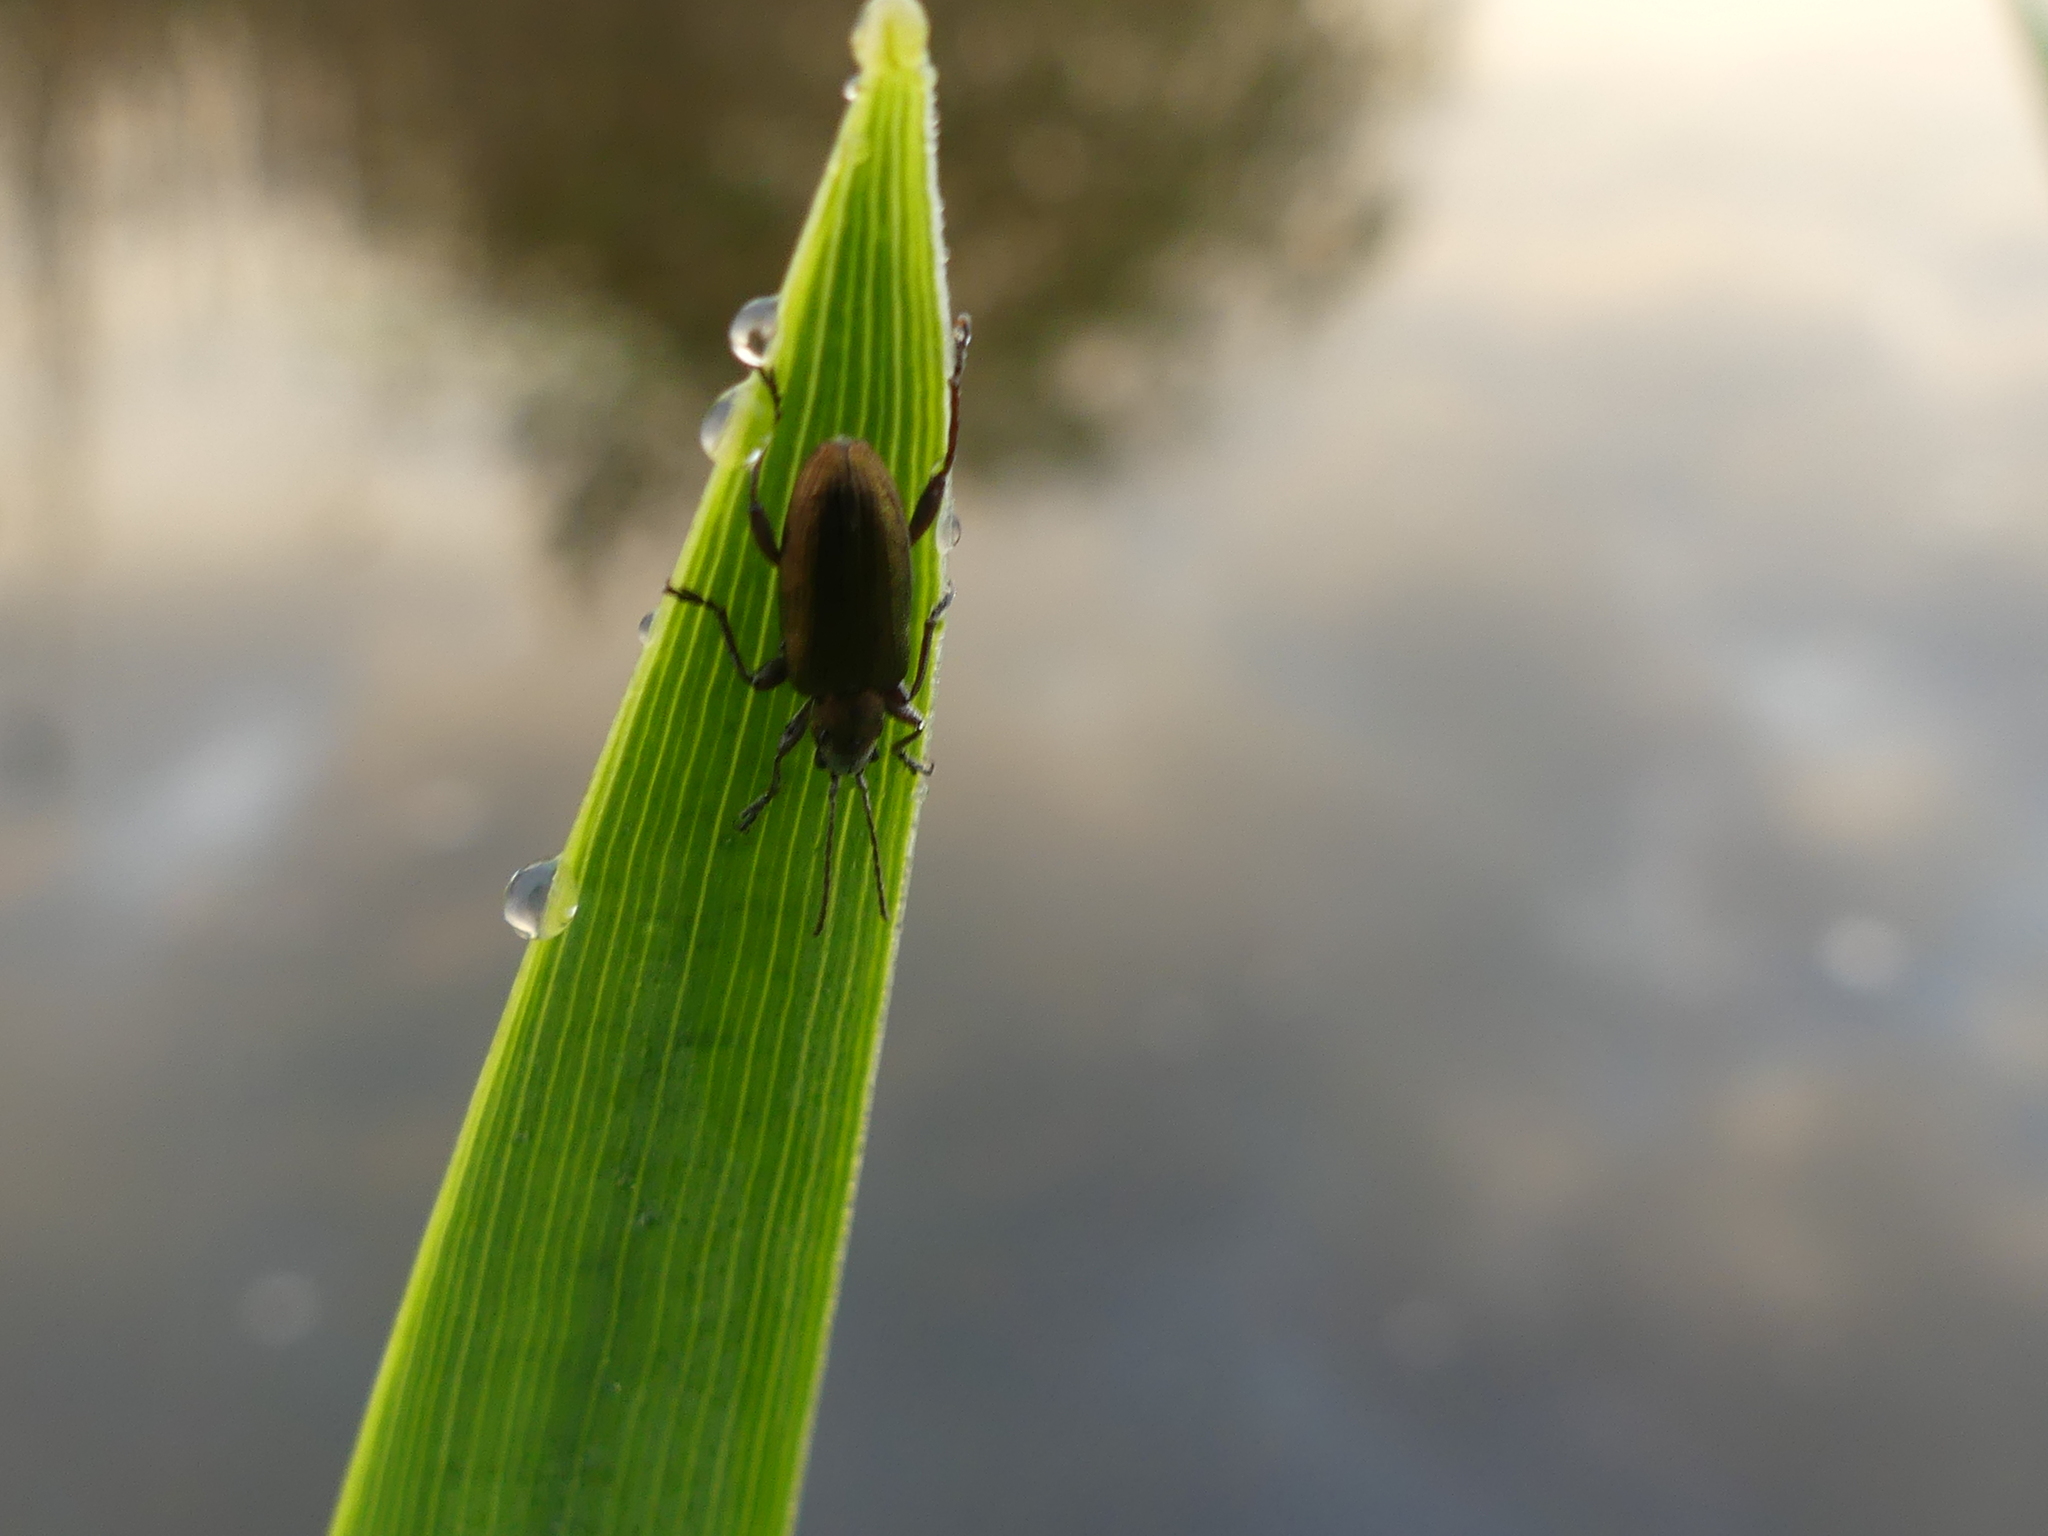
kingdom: Animalia
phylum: Arthropoda
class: Insecta
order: Coleoptera
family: Chrysomelidae
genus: Donacia
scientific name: Donacia semicuprea
